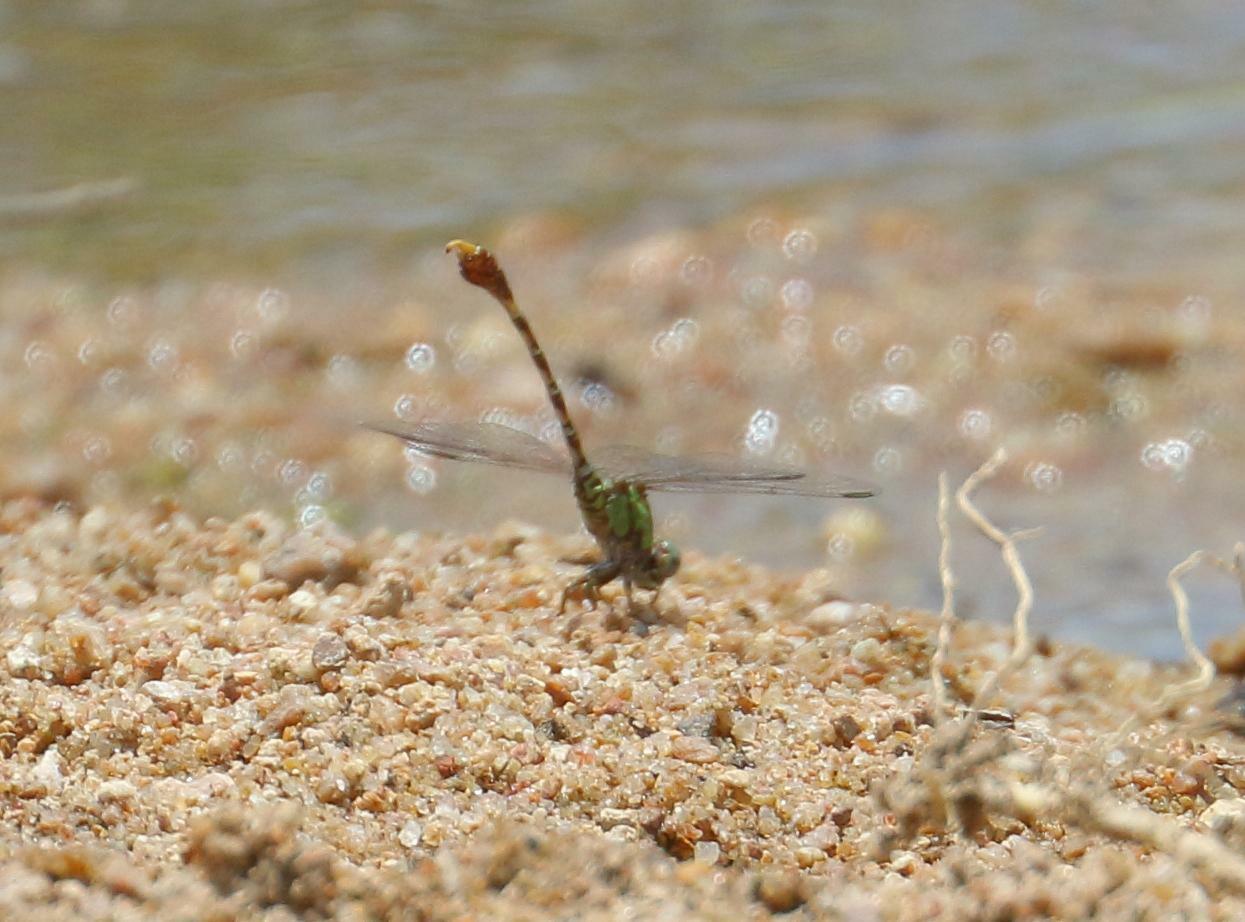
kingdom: Animalia
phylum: Arthropoda
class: Insecta
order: Odonata
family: Gomphidae
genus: Paragomphus
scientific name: Paragomphus genei
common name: Common hooktail
